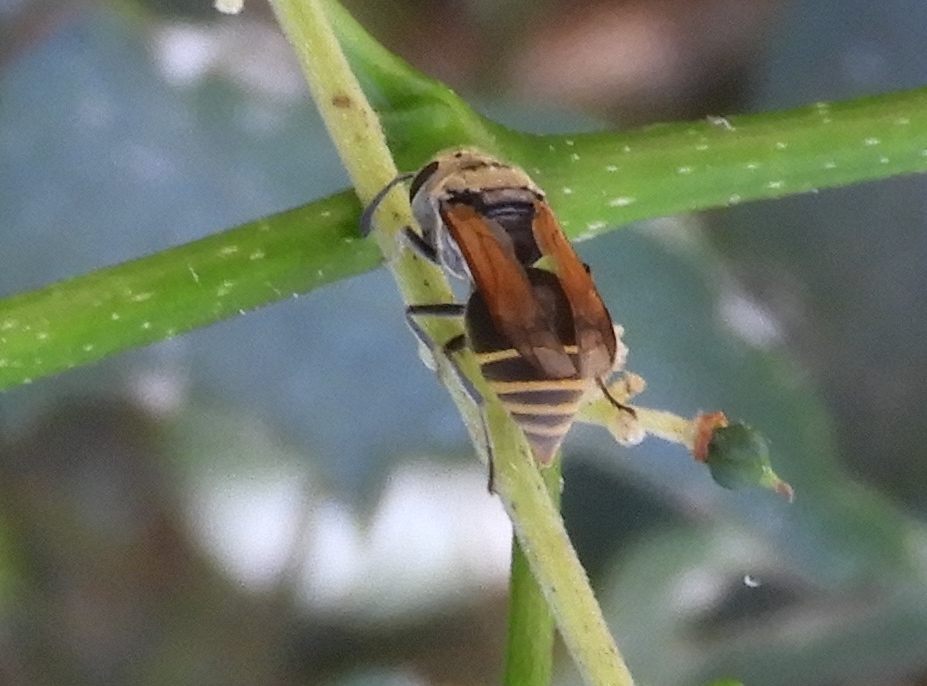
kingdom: Animalia
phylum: Arthropoda
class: Insecta
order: Hymenoptera
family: Vespidae
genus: Brachygastra
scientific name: Brachygastra mellifica
